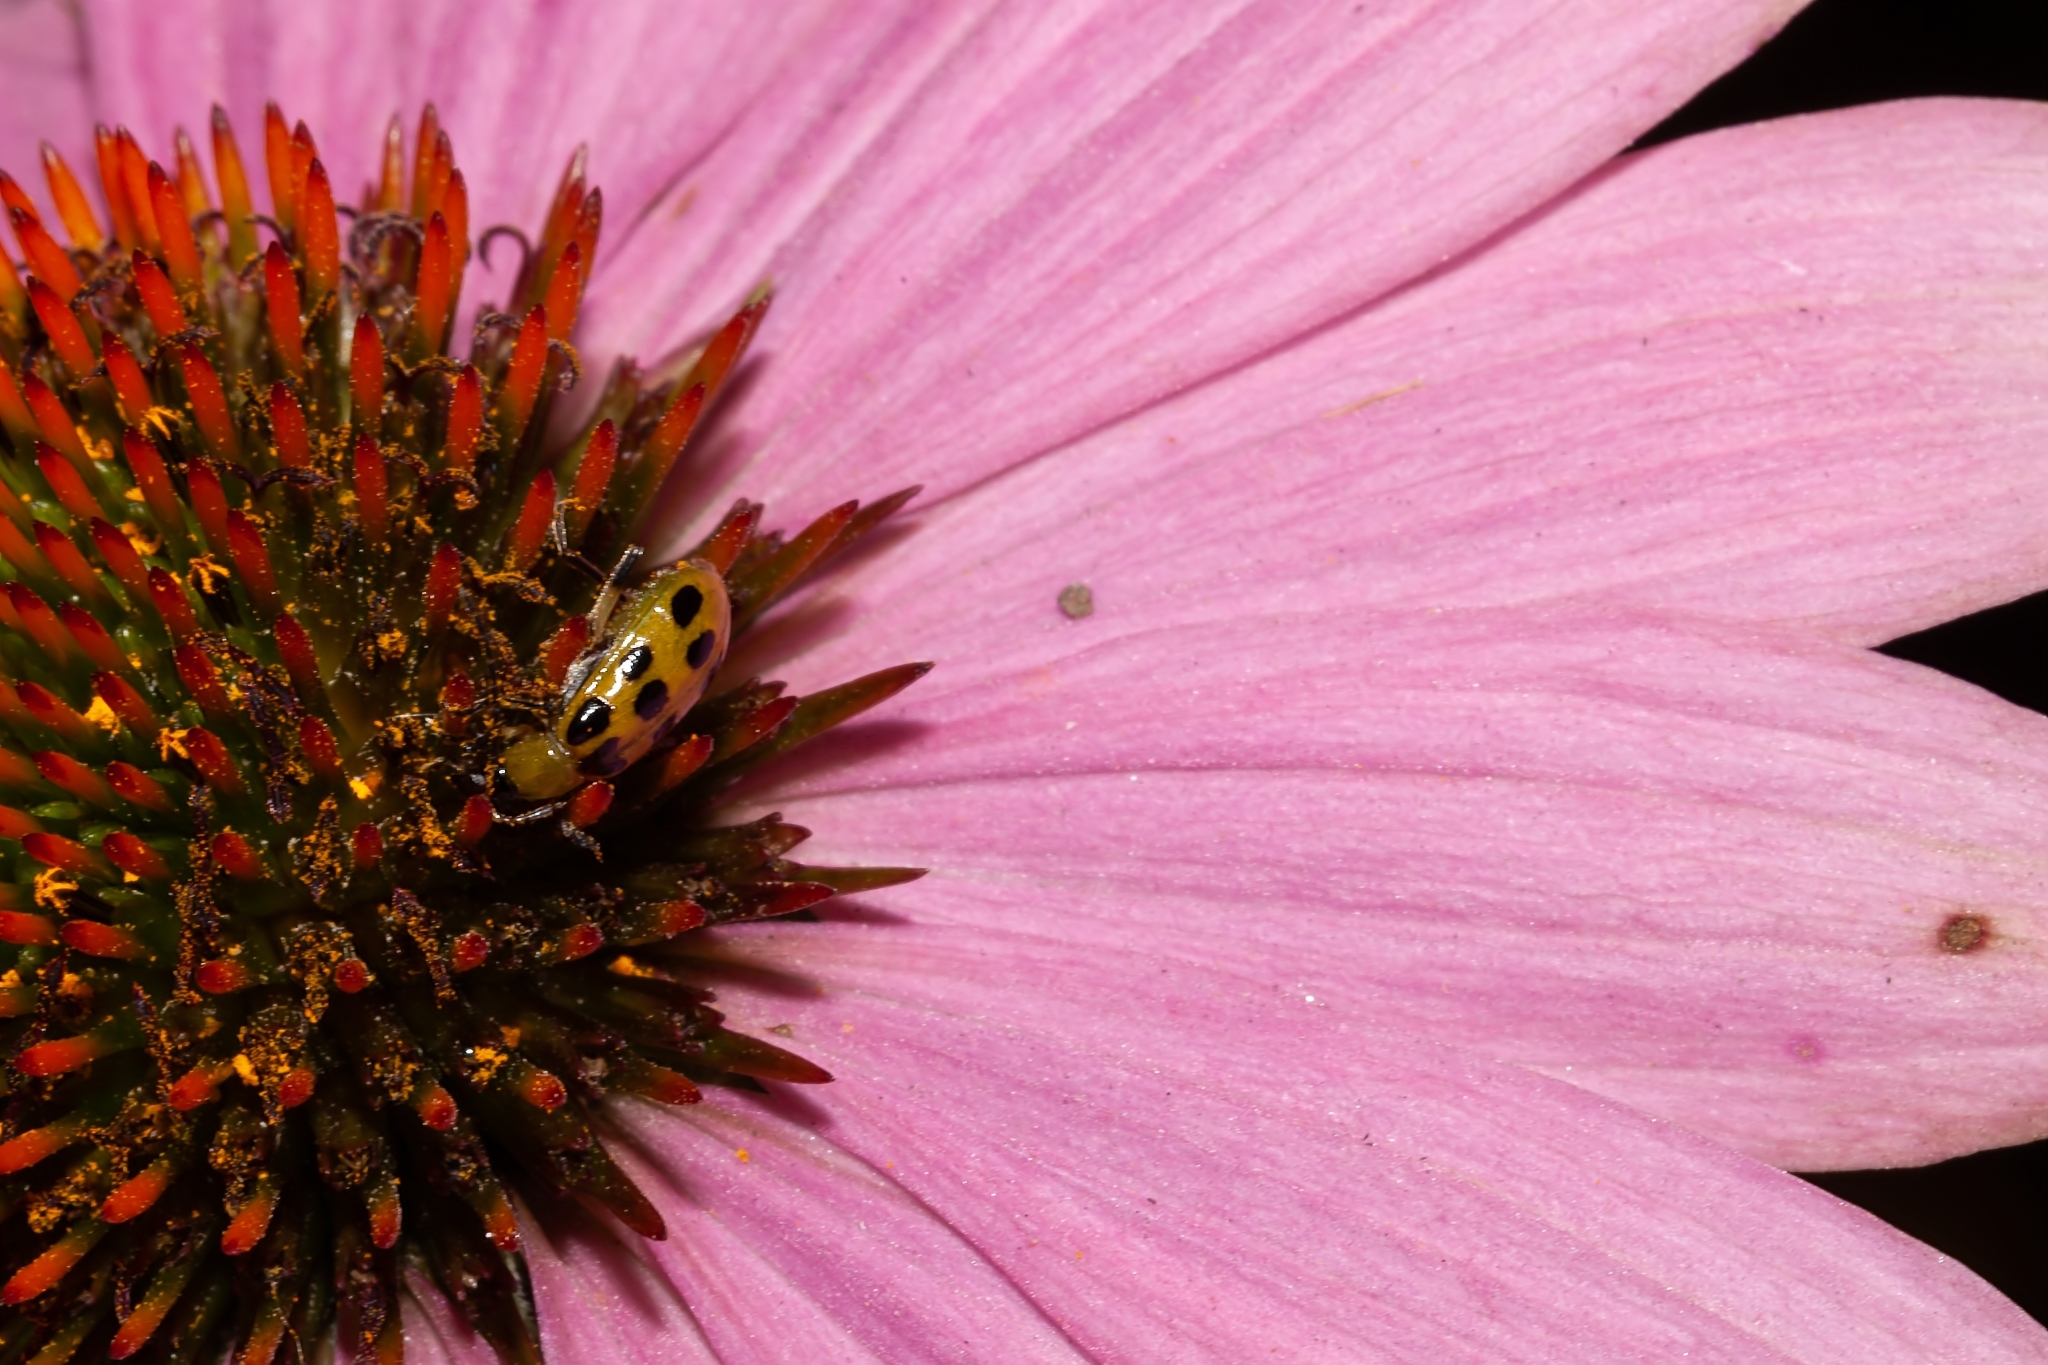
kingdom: Animalia
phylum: Arthropoda
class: Insecta
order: Coleoptera
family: Chrysomelidae
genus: Diabrotica
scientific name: Diabrotica undecimpunctata
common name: Spotted cucumber beetle
